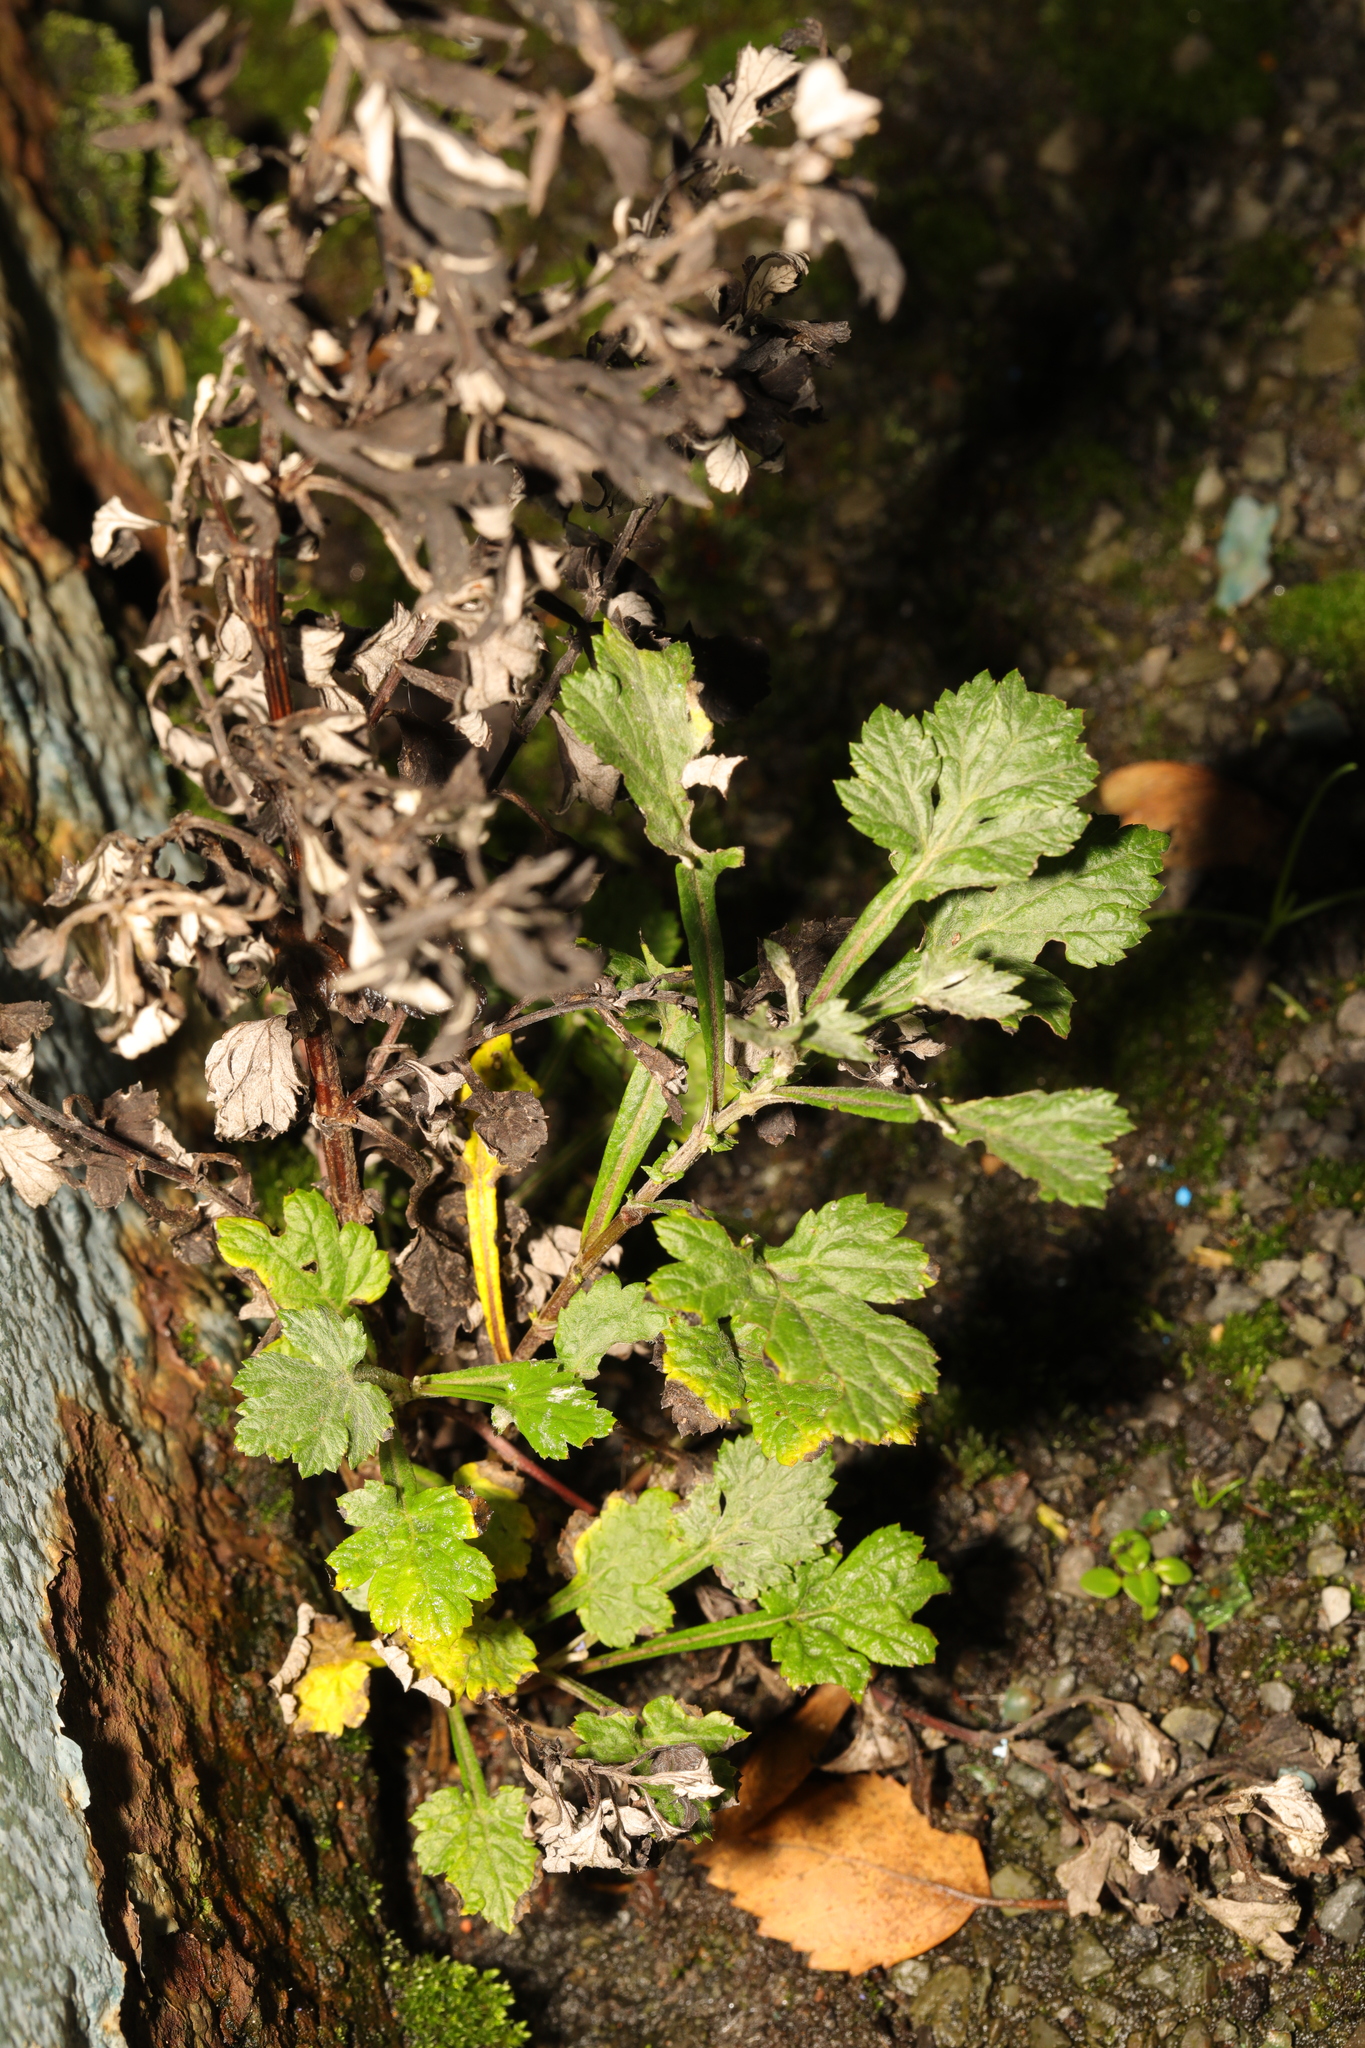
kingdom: Plantae
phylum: Tracheophyta
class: Magnoliopsida
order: Asterales
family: Asteraceae
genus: Artemisia
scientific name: Artemisia vulgaris
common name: Mugwort
